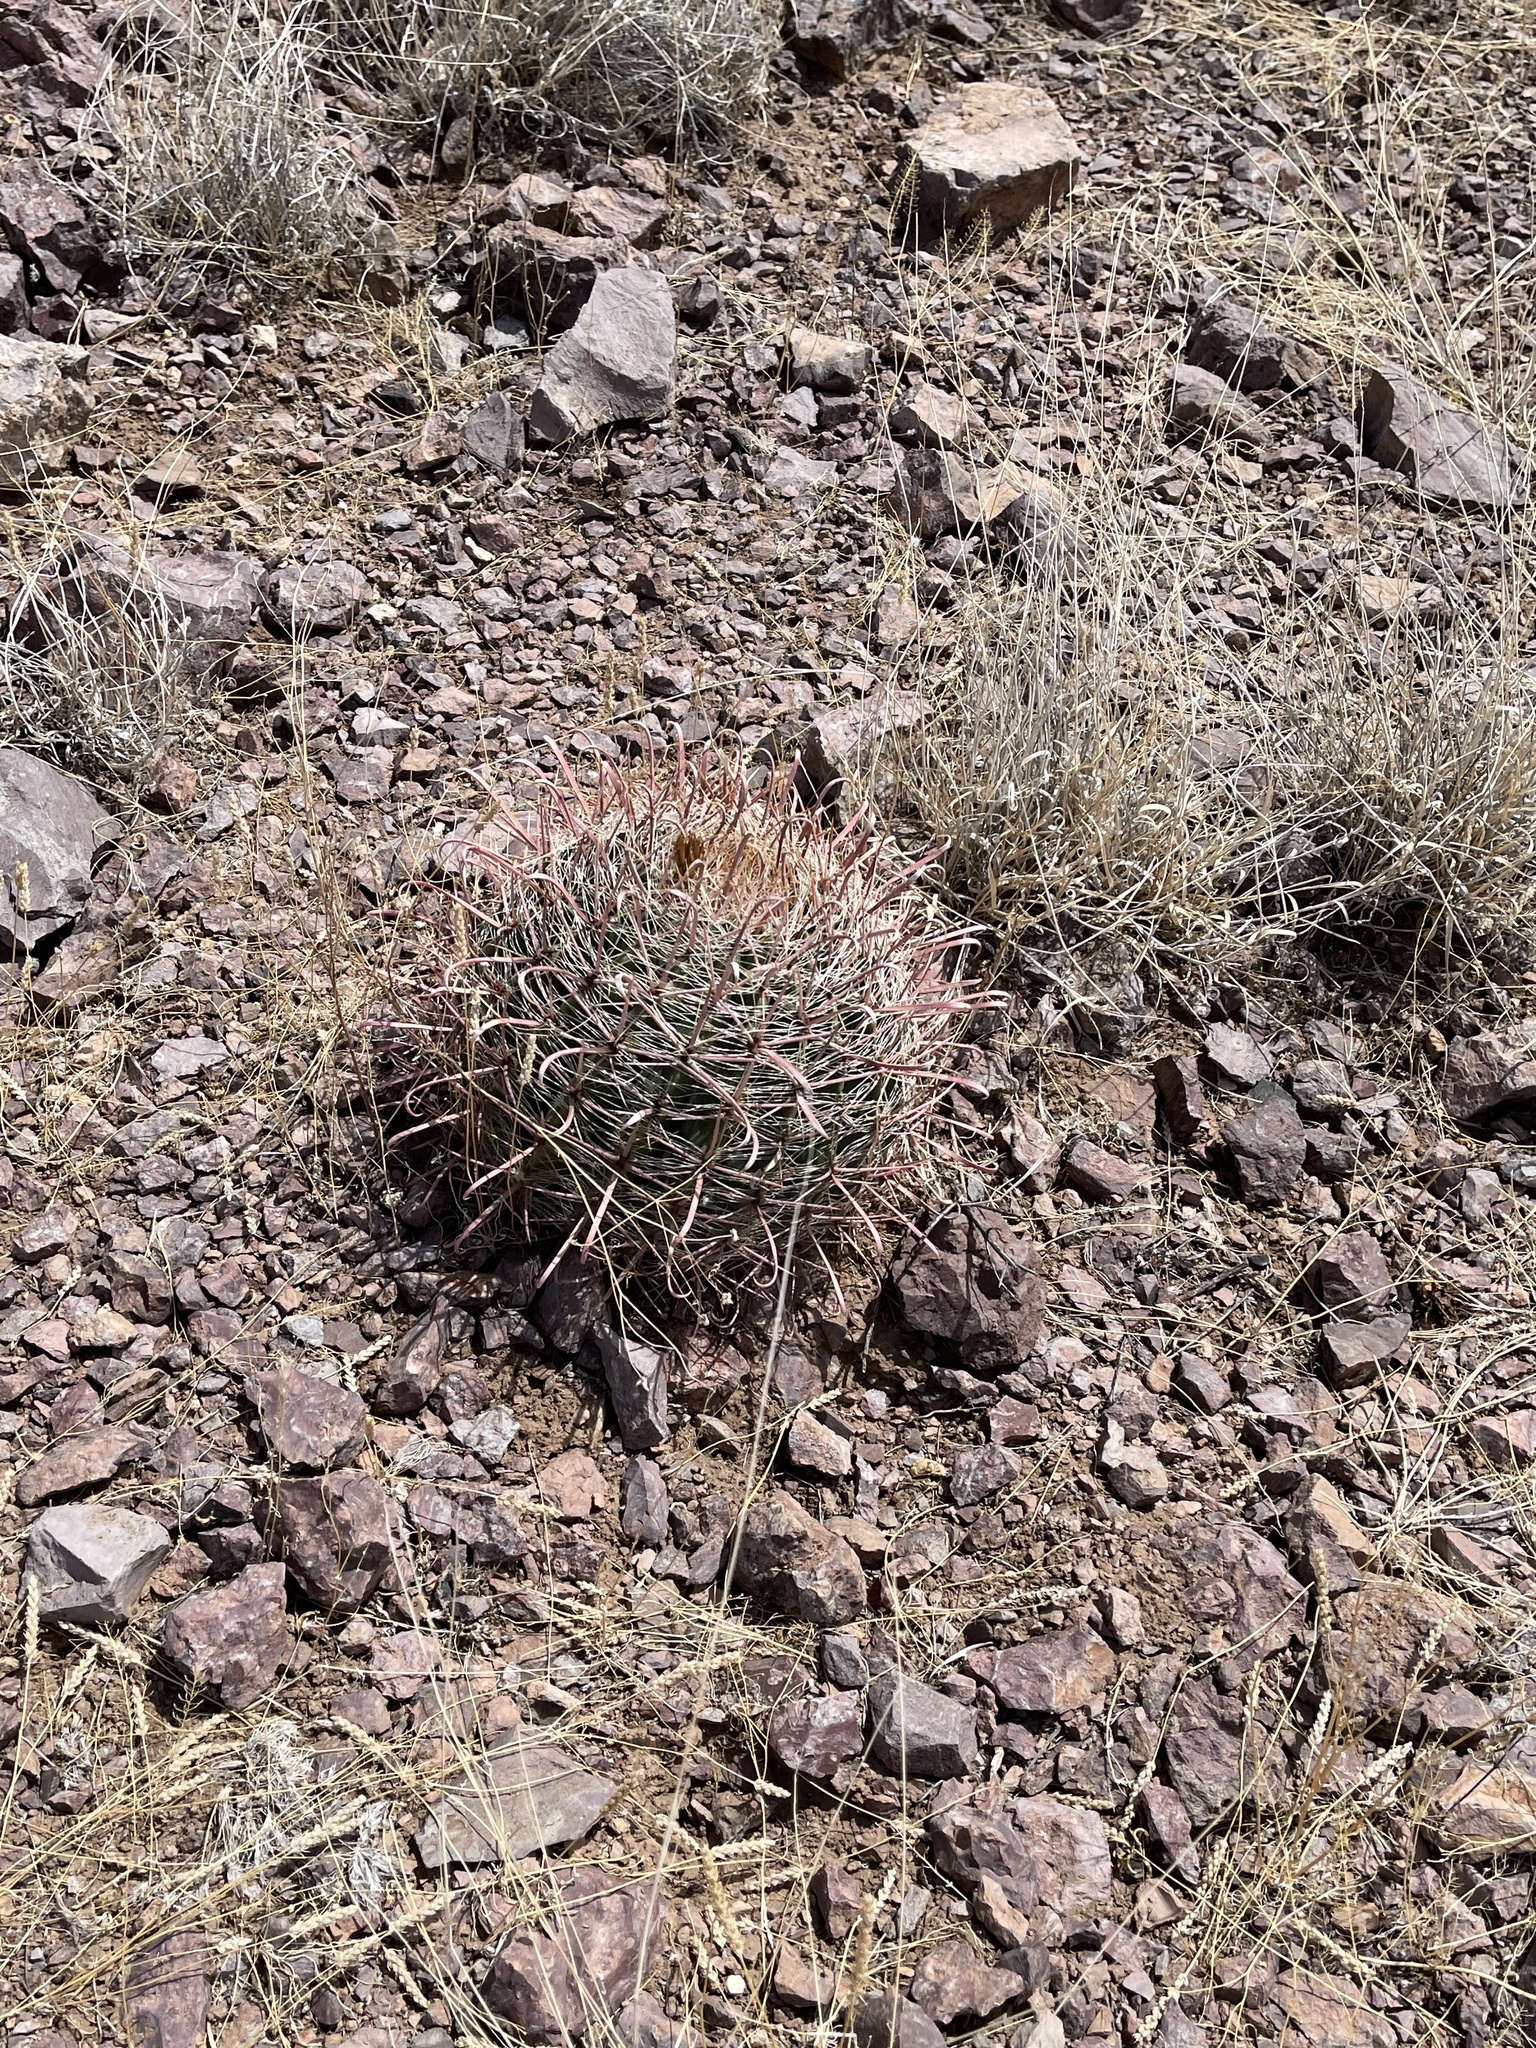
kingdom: Plantae
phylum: Tracheophyta
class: Magnoliopsida
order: Caryophyllales
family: Cactaceae
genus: Ferocactus
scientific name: Ferocactus wislizeni
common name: Candy barrel cactus
